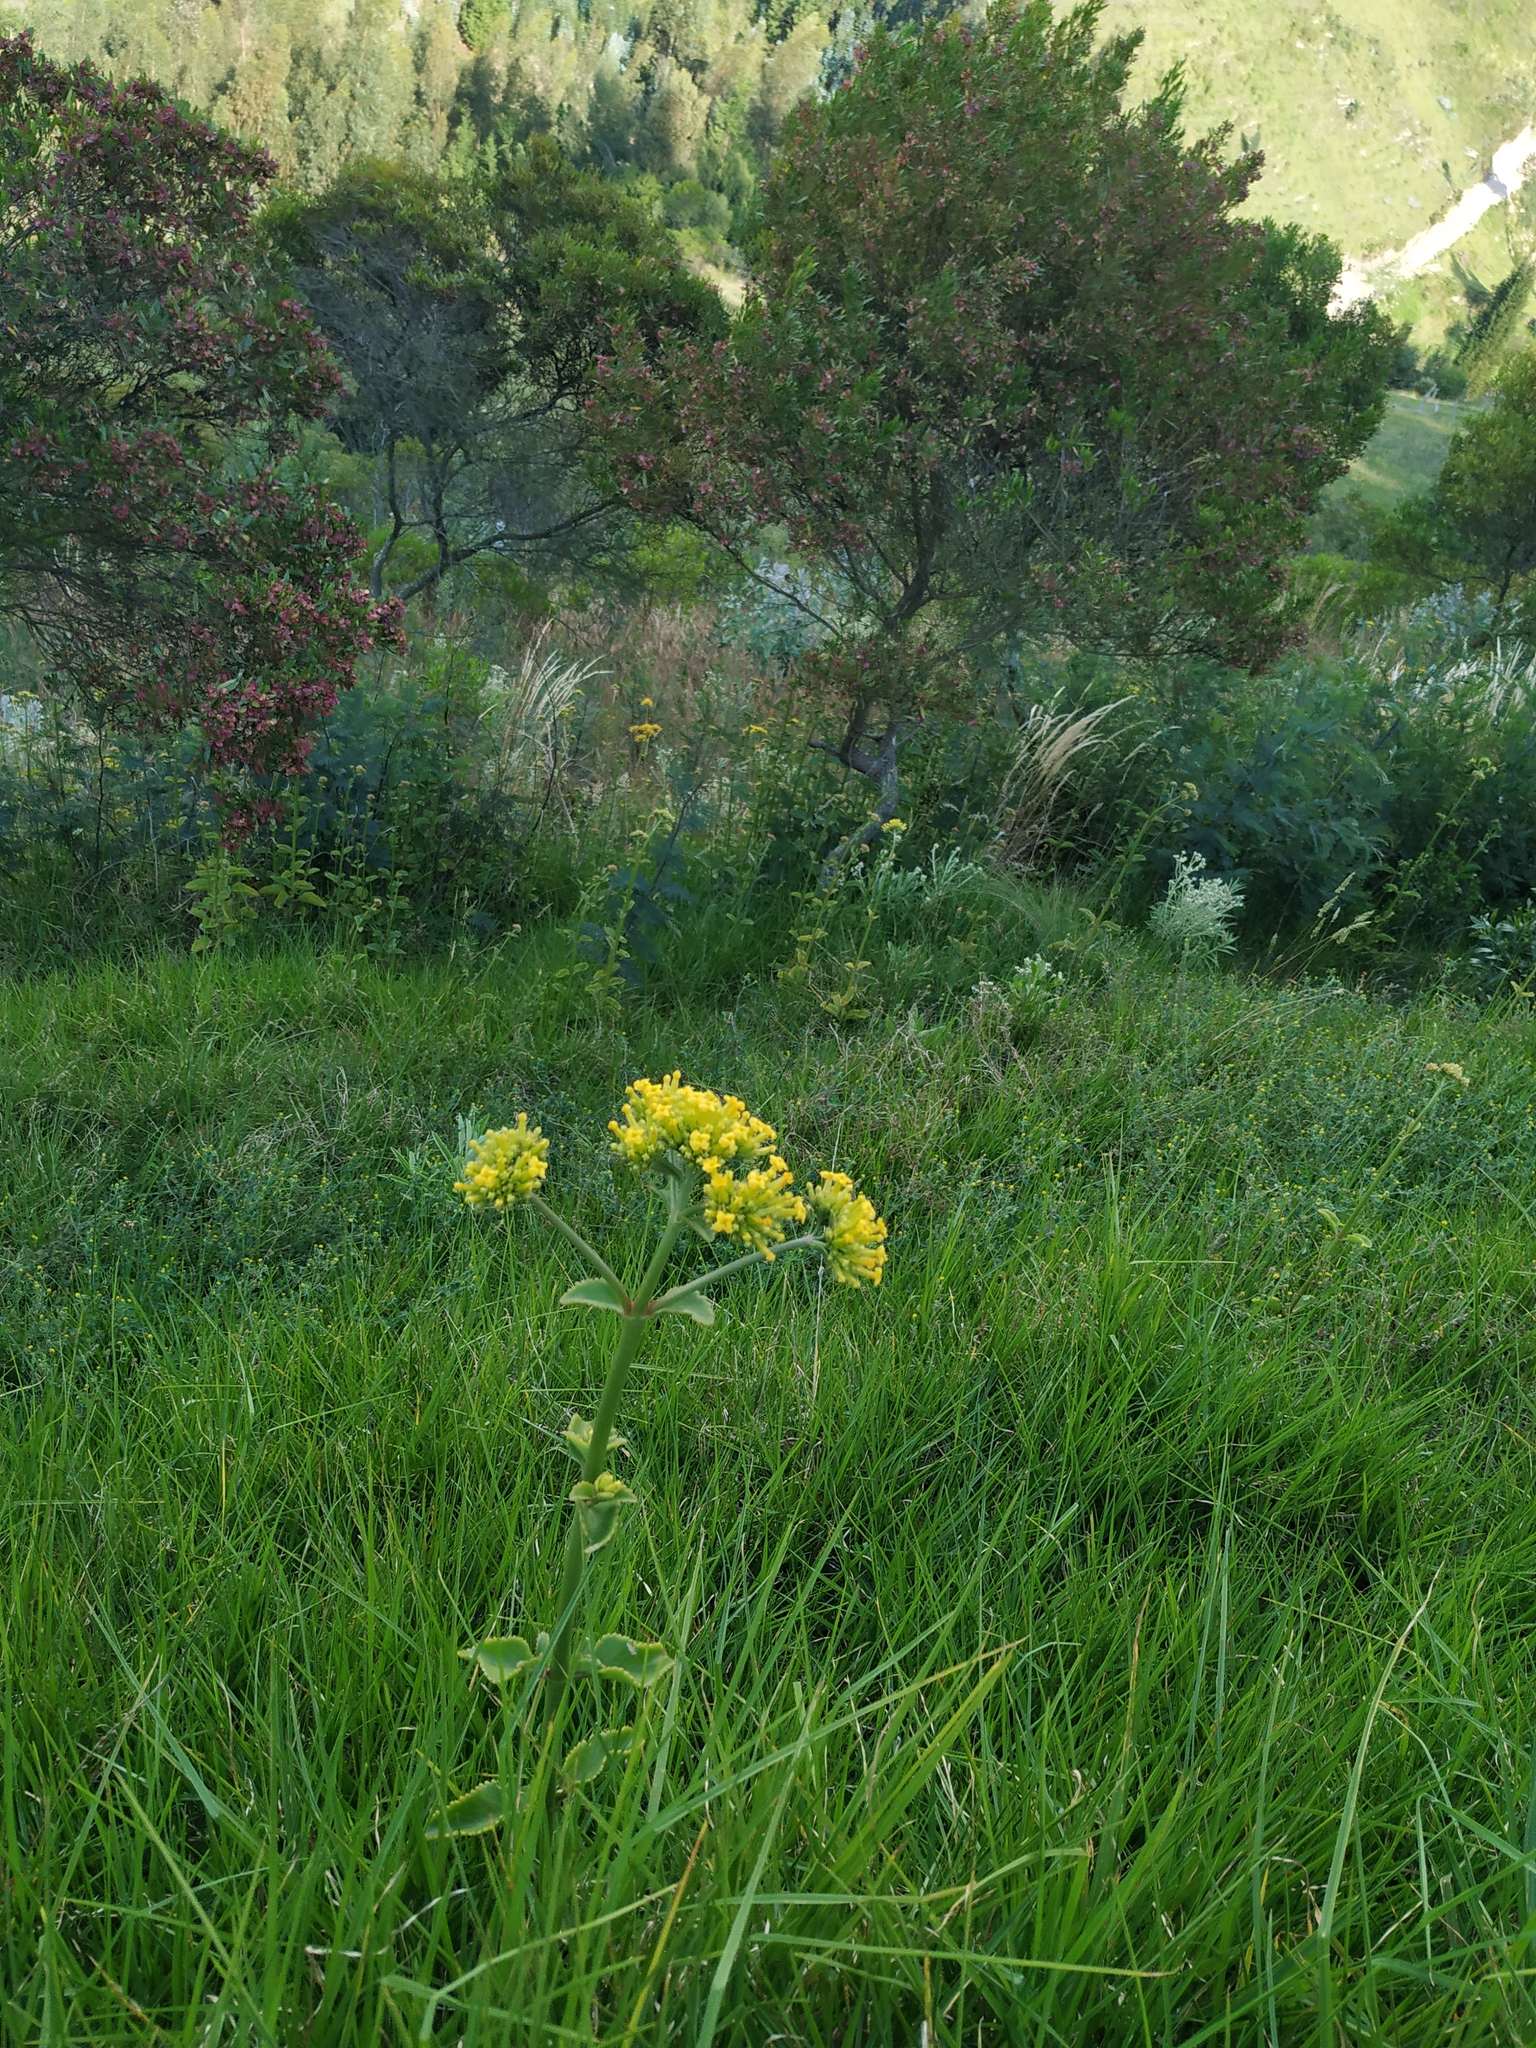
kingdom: Plantae
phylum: Tracheophyta
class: Magnoliopsida
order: Saxifragales
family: Crassulaceae
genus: Kalanchoe
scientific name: Kalanchoe densiflora
